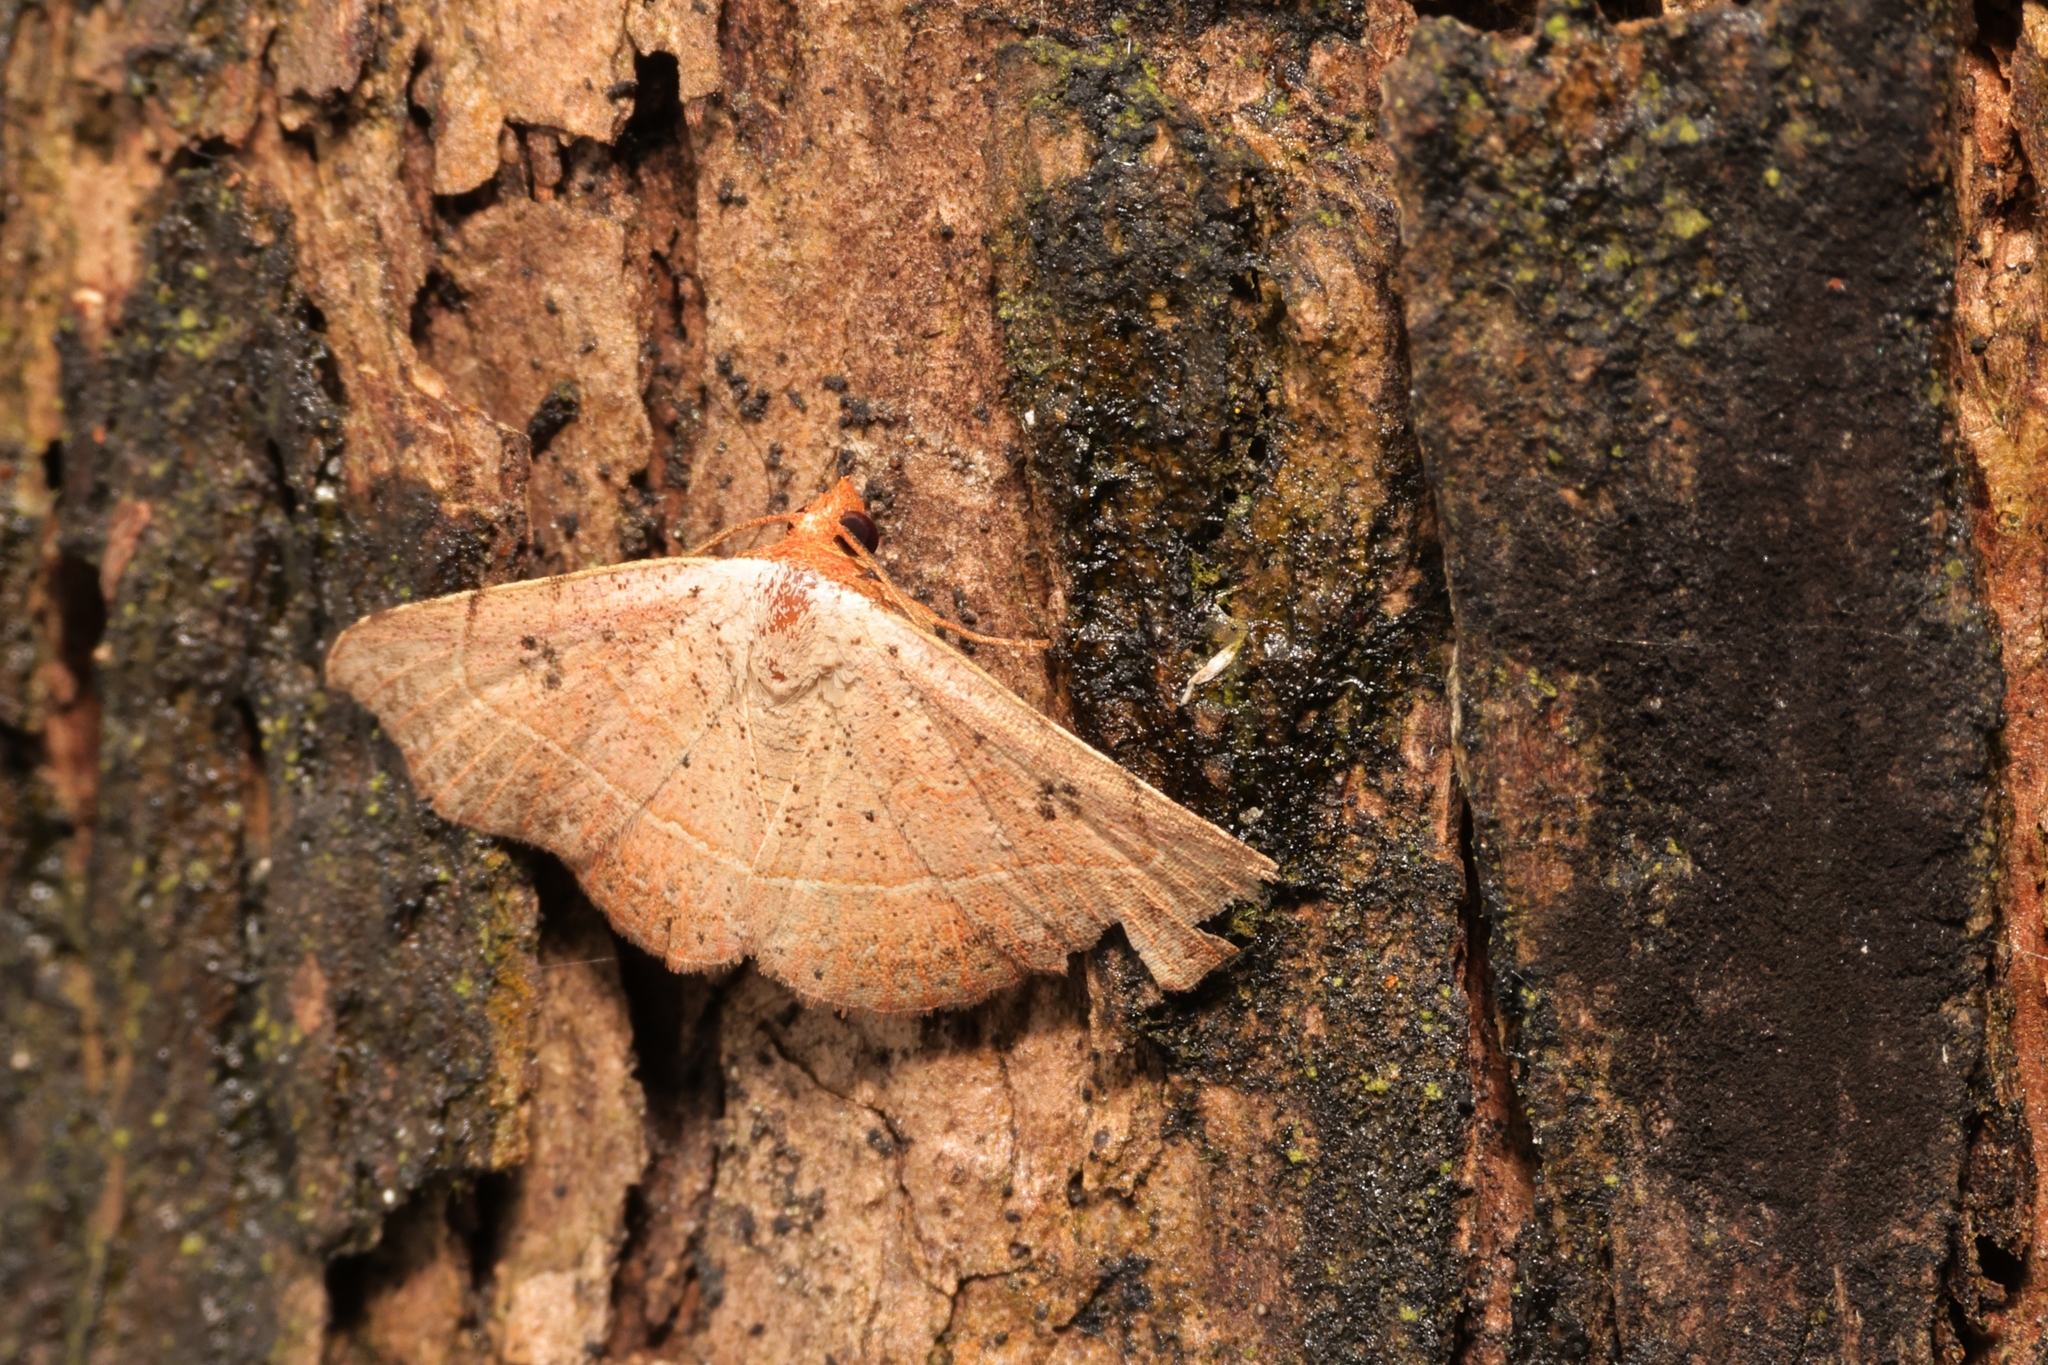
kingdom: Animalia
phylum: Arthropoda
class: Insecta
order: Lepidoptera
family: Erebidae
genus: Laspeyria
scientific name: Laspeyria ruficeps
